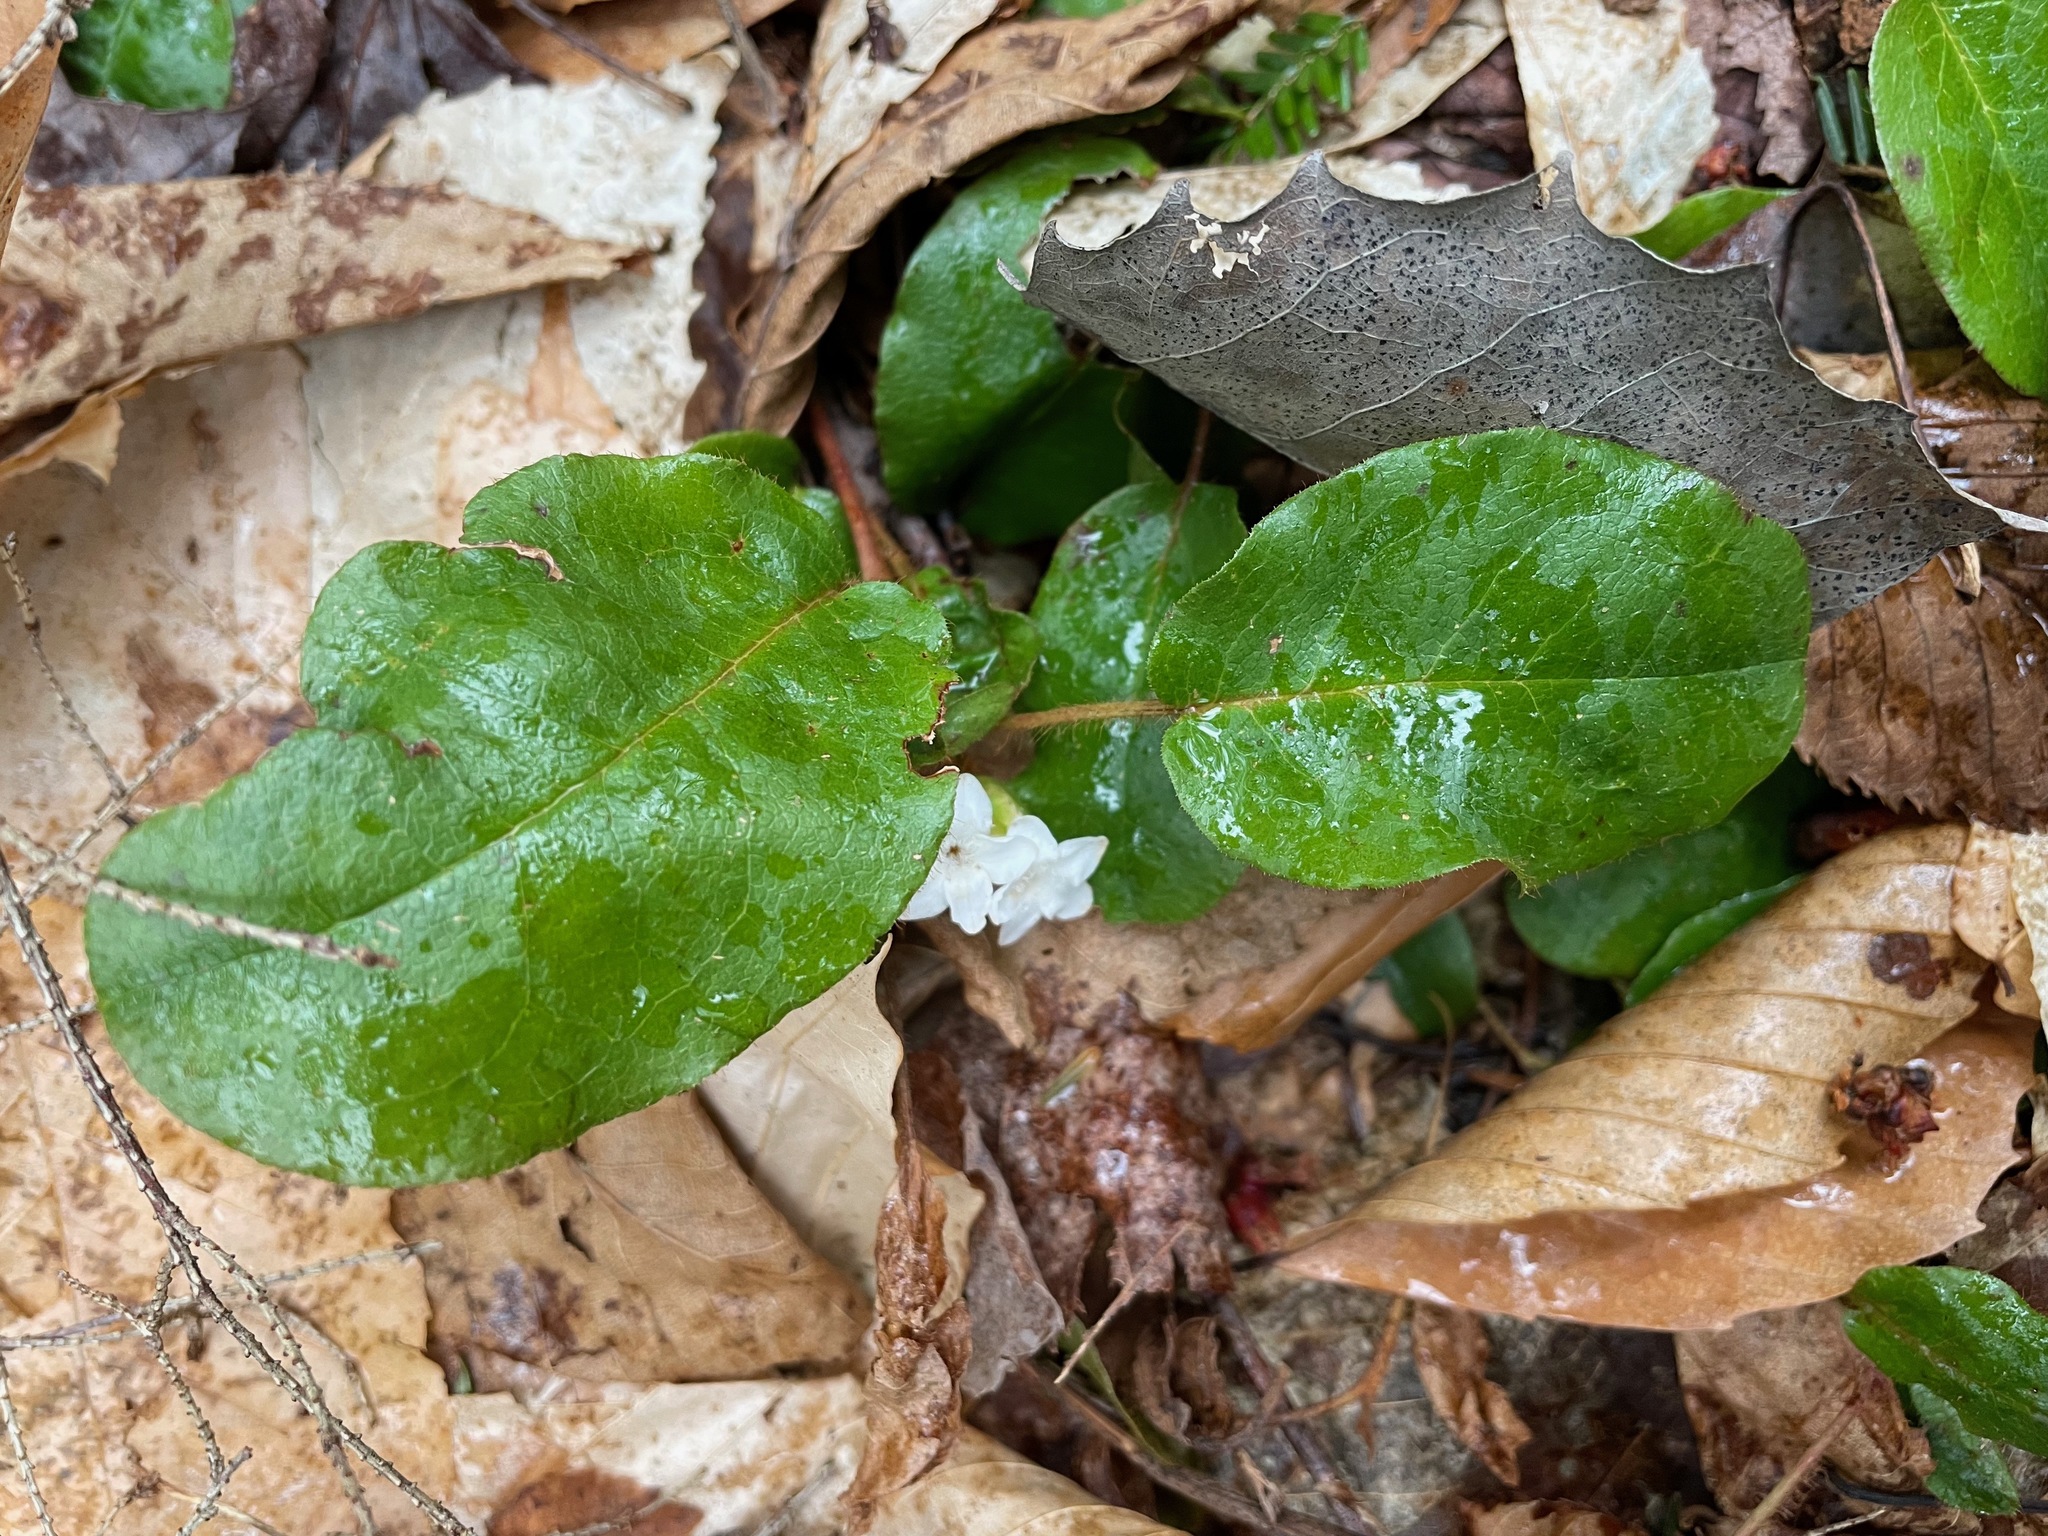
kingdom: Plantae
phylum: Tracheophyta
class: Magnoliopsida
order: Ericales
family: Ericaceae
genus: Epigaea
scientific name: Epigaea repens
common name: Gravelroot
